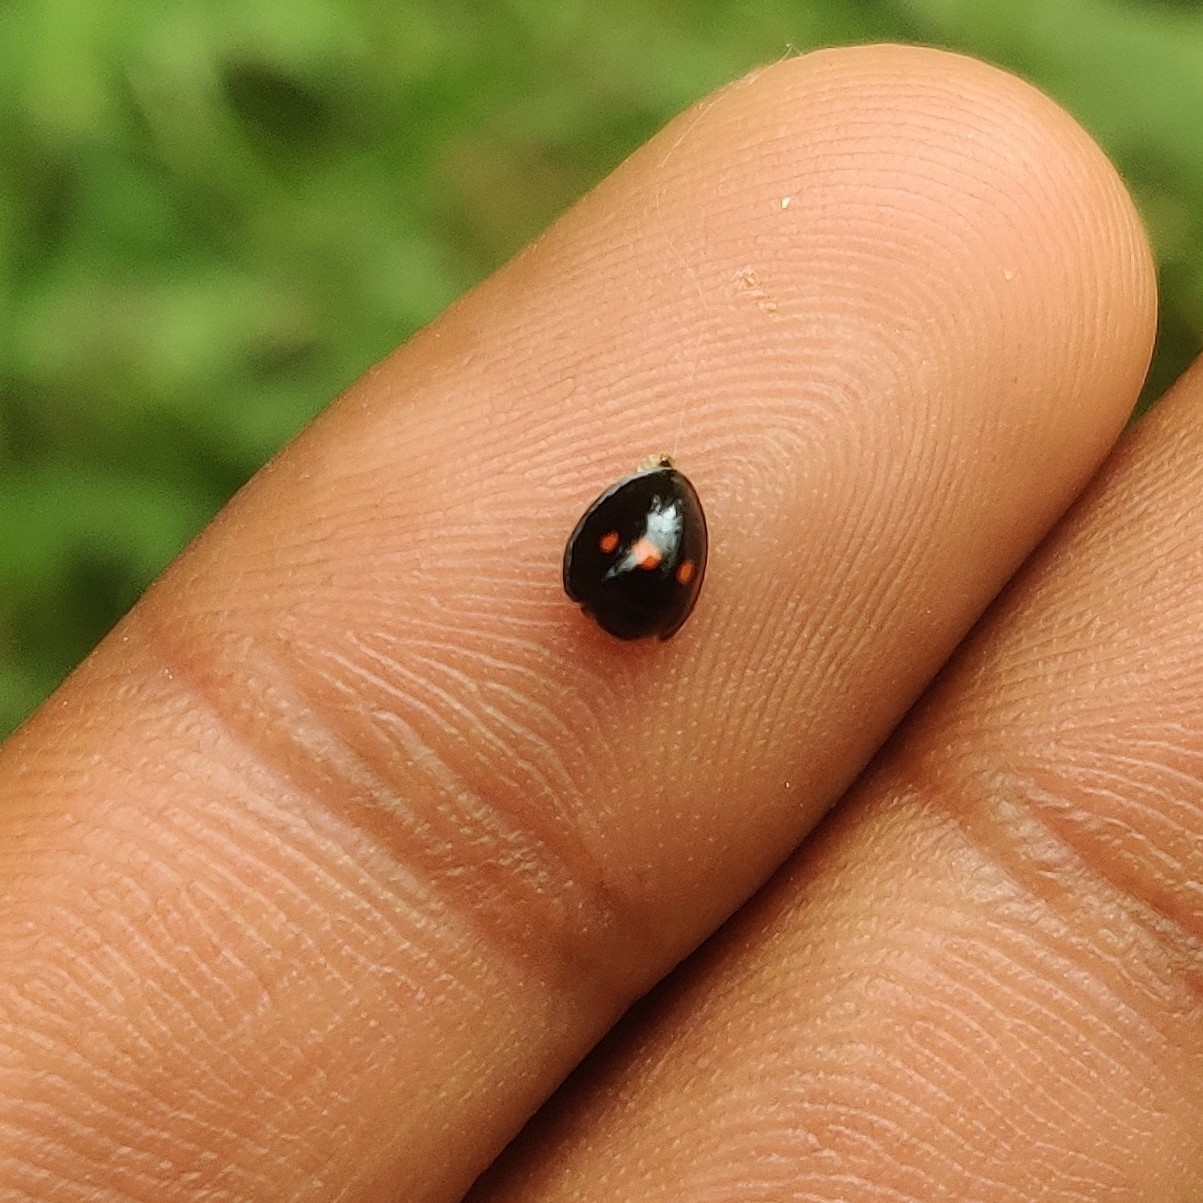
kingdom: Animalia
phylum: Arthropoda
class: Insecta
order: Coleoptera
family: Coccinellidae
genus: Chilocorus
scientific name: Chilocorus infernalis
